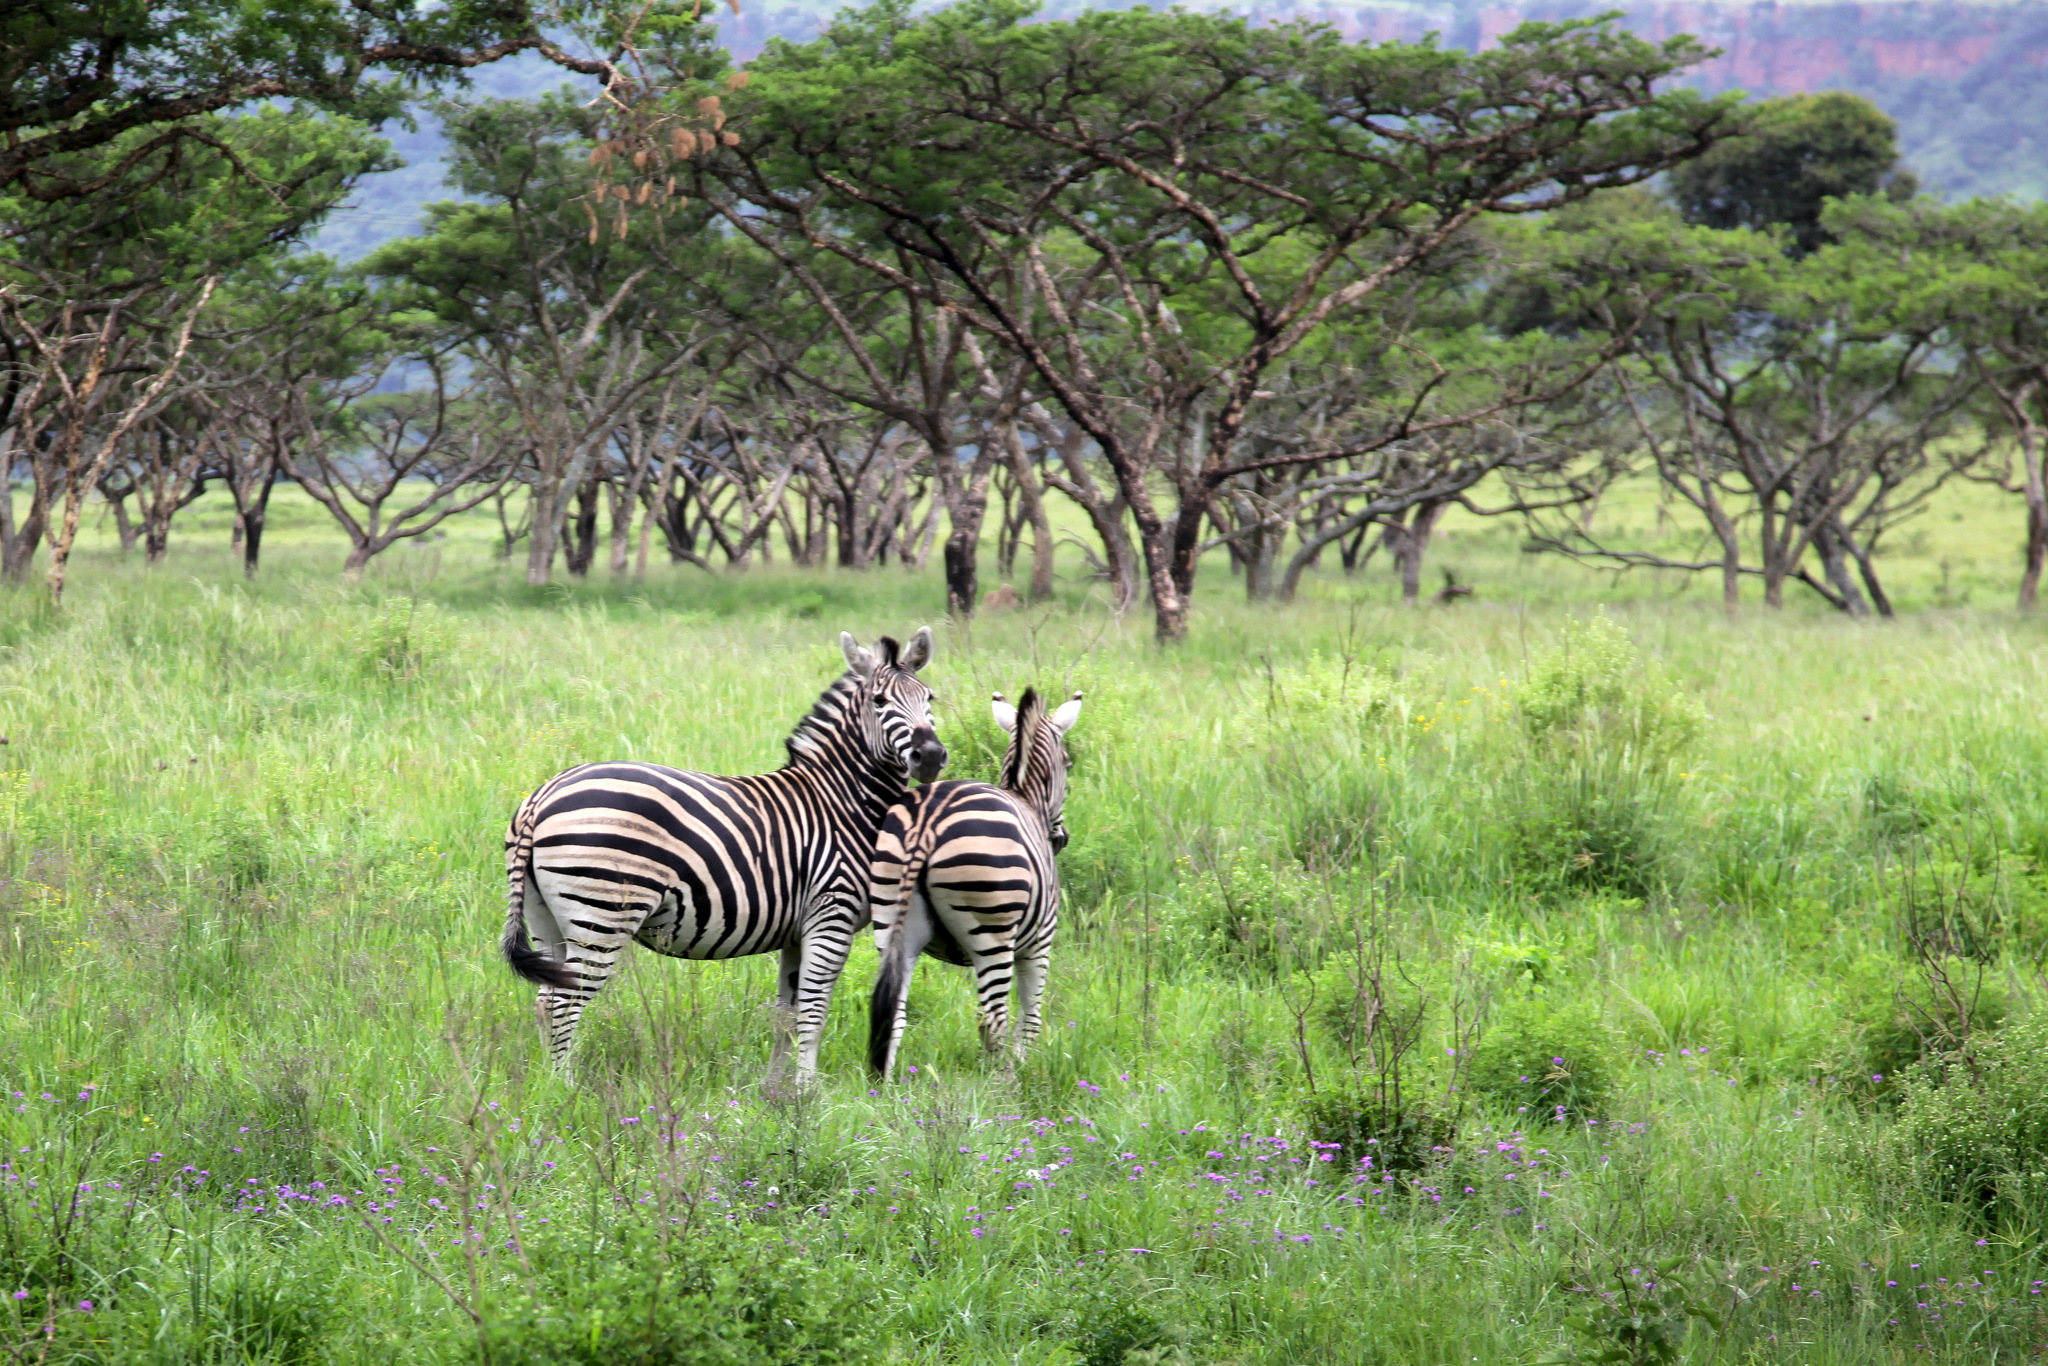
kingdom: Animalia
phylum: Chordata
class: Mammalia
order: Perissodactyla
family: Equidae
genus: Equus
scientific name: Equus quagga
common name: Plains zebra
